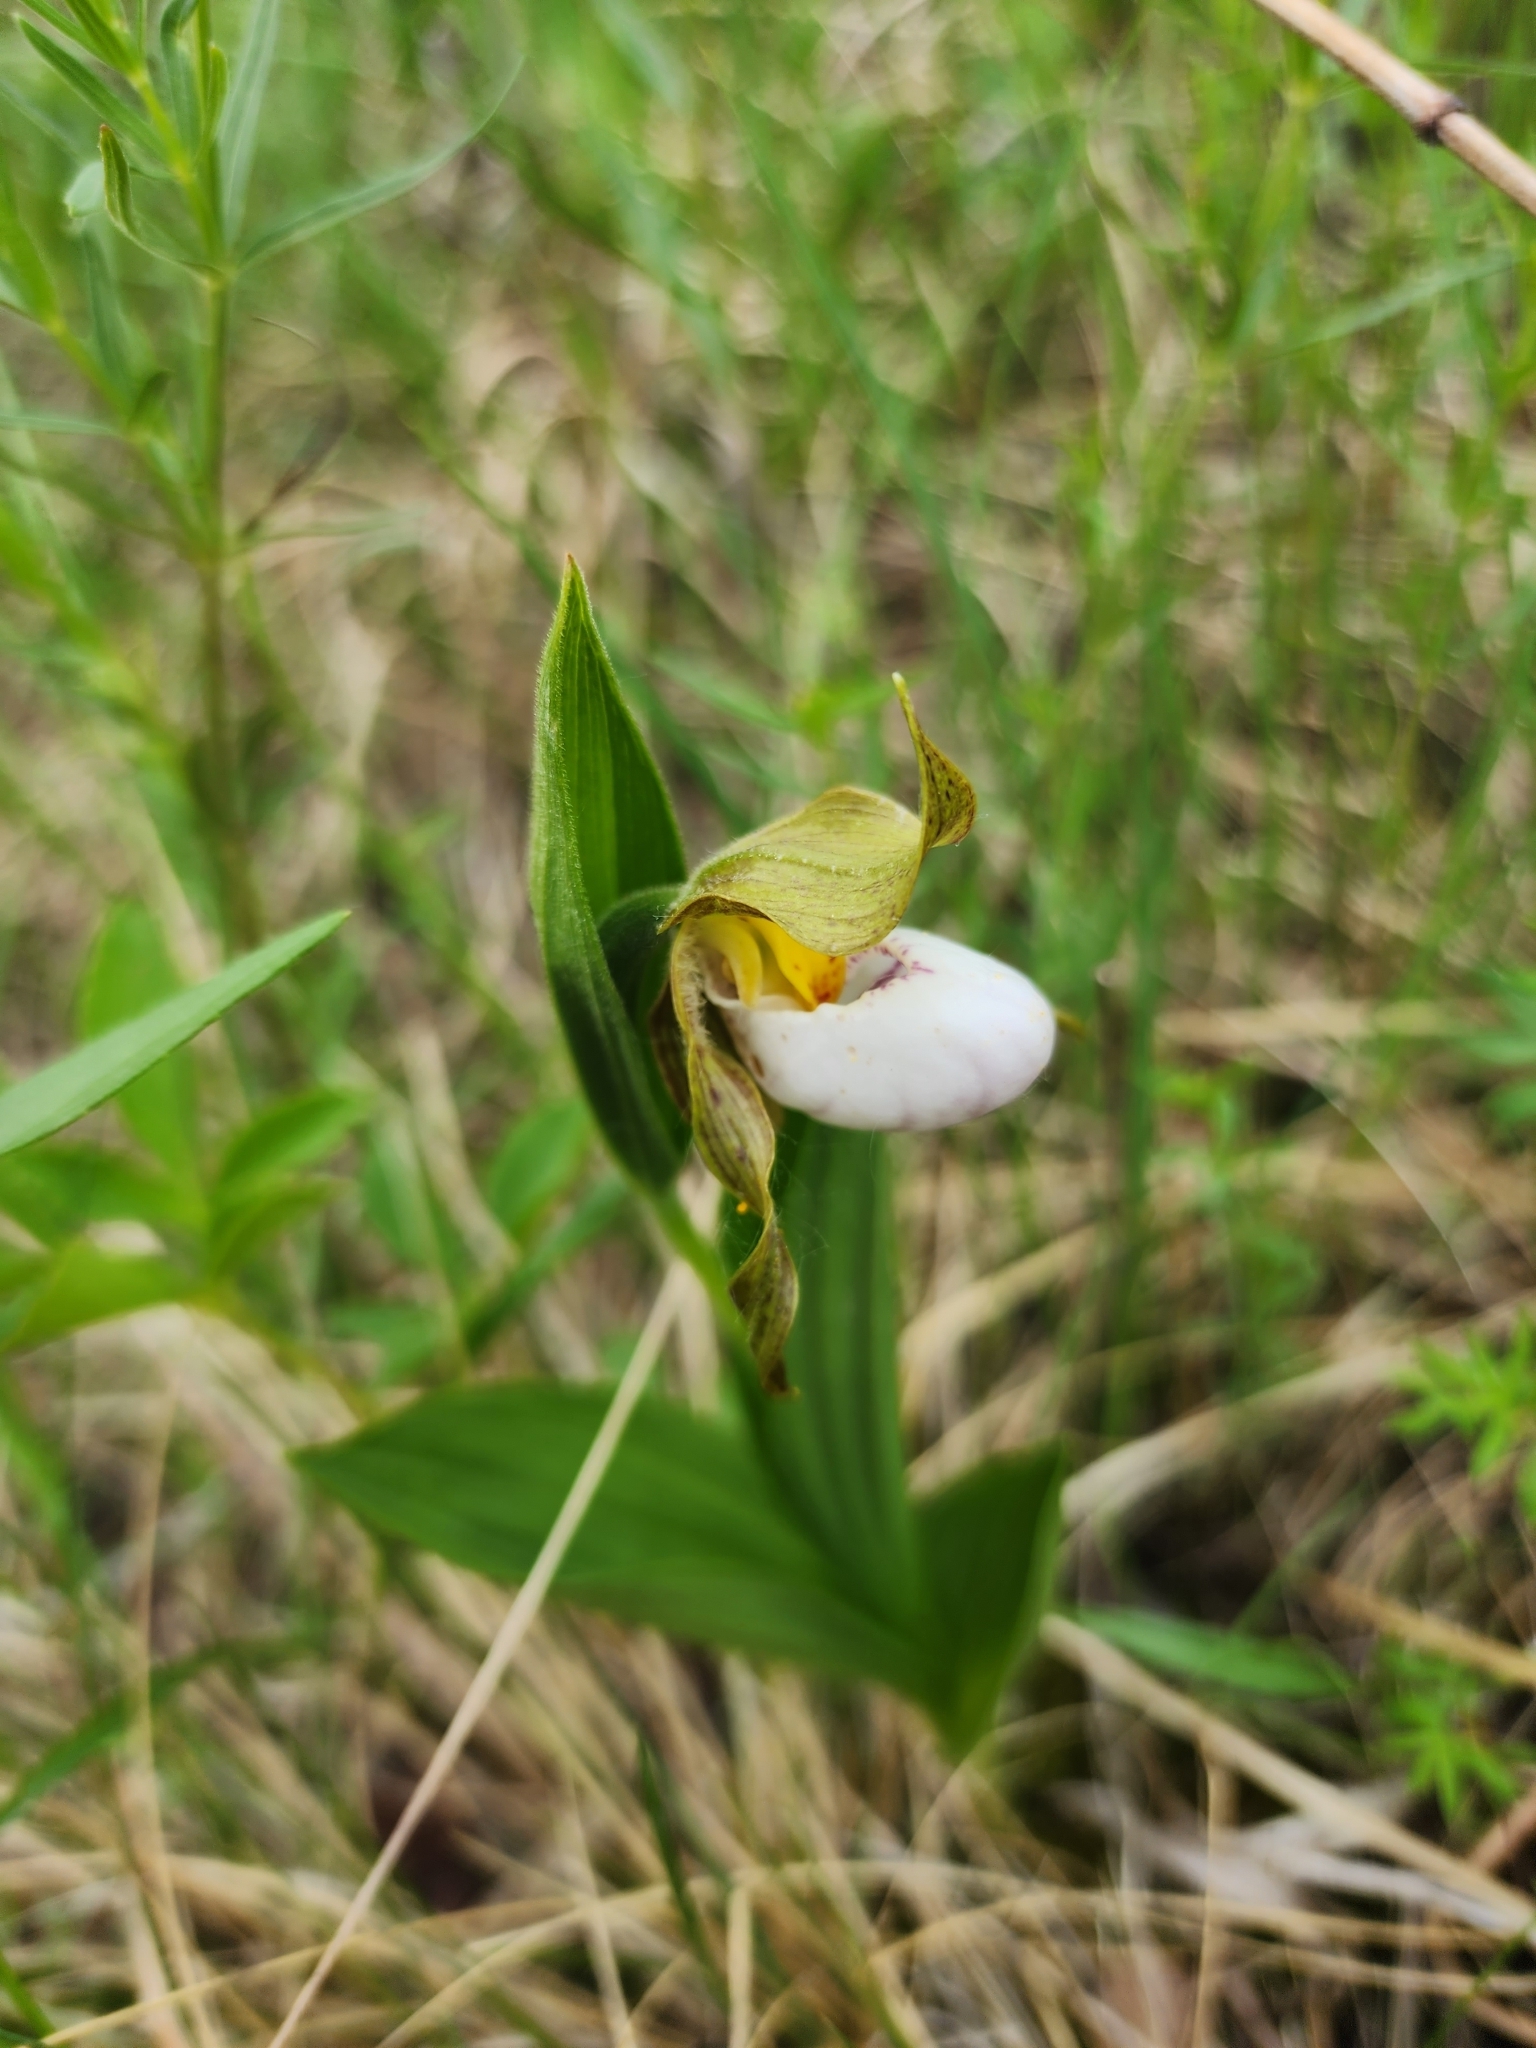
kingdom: Plantae
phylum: Tracheophyta
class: Liliopsida
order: Asparagales
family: Orchidaceae
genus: Cypripedium
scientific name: Cypripedium candidum
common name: White lady's-slipper
